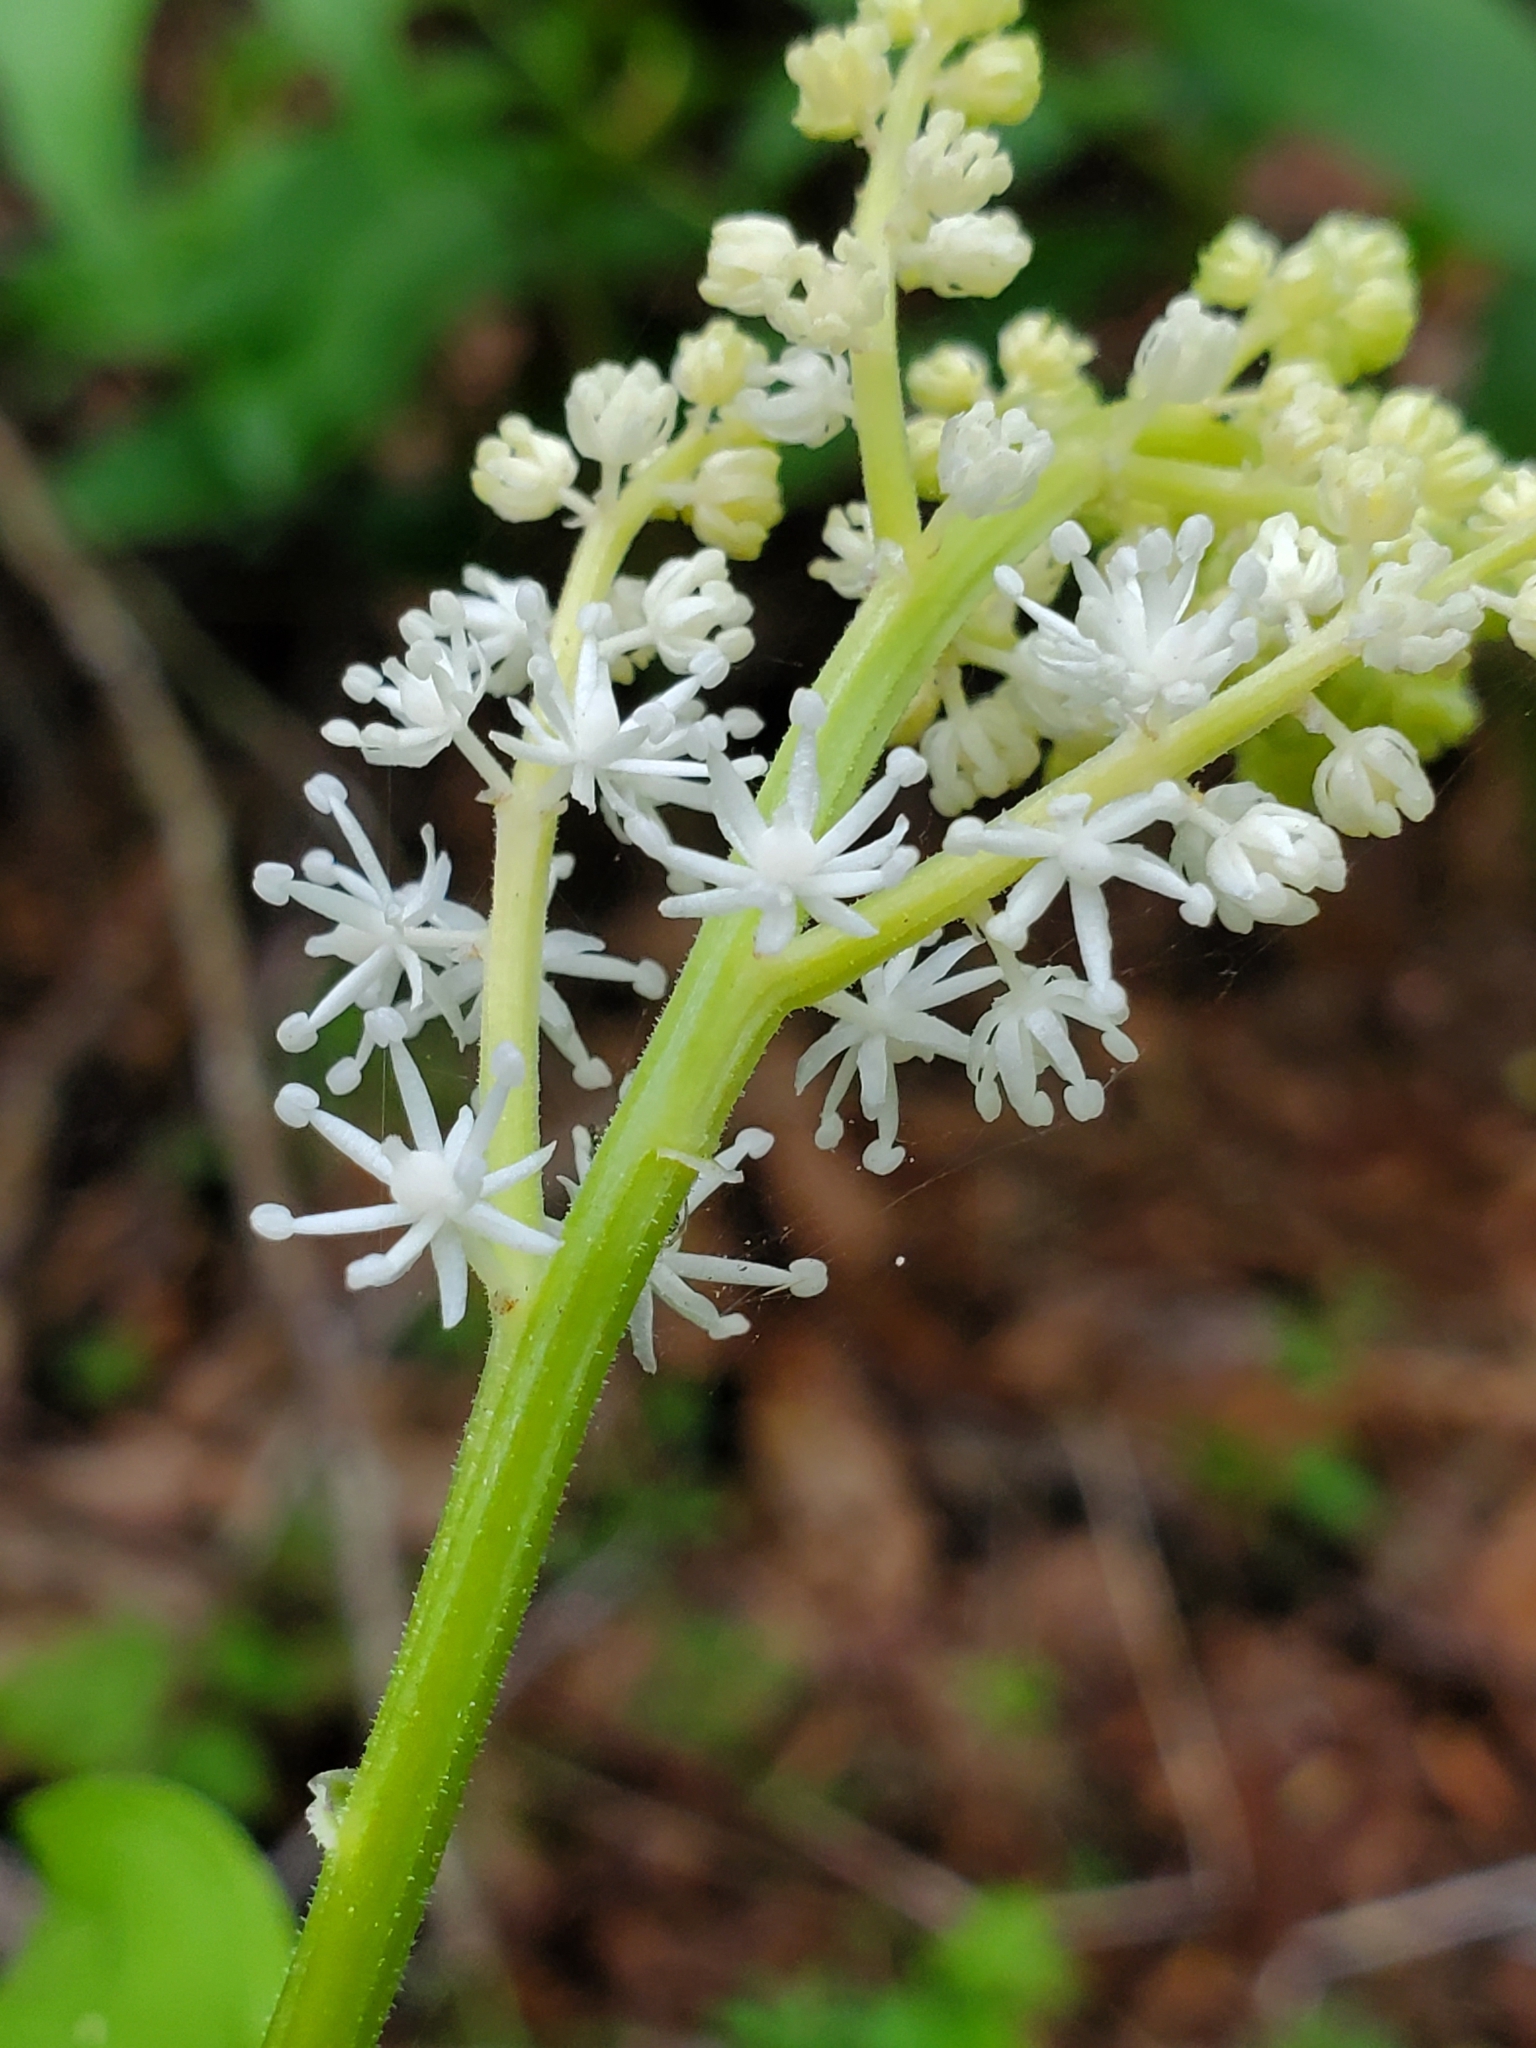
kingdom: Plantae
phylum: Tracheophyta
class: Liliopsida
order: Asparagales
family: Asparagaceae
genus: Maianthemum
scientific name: Maianthemum racemosum
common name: False spikenard
